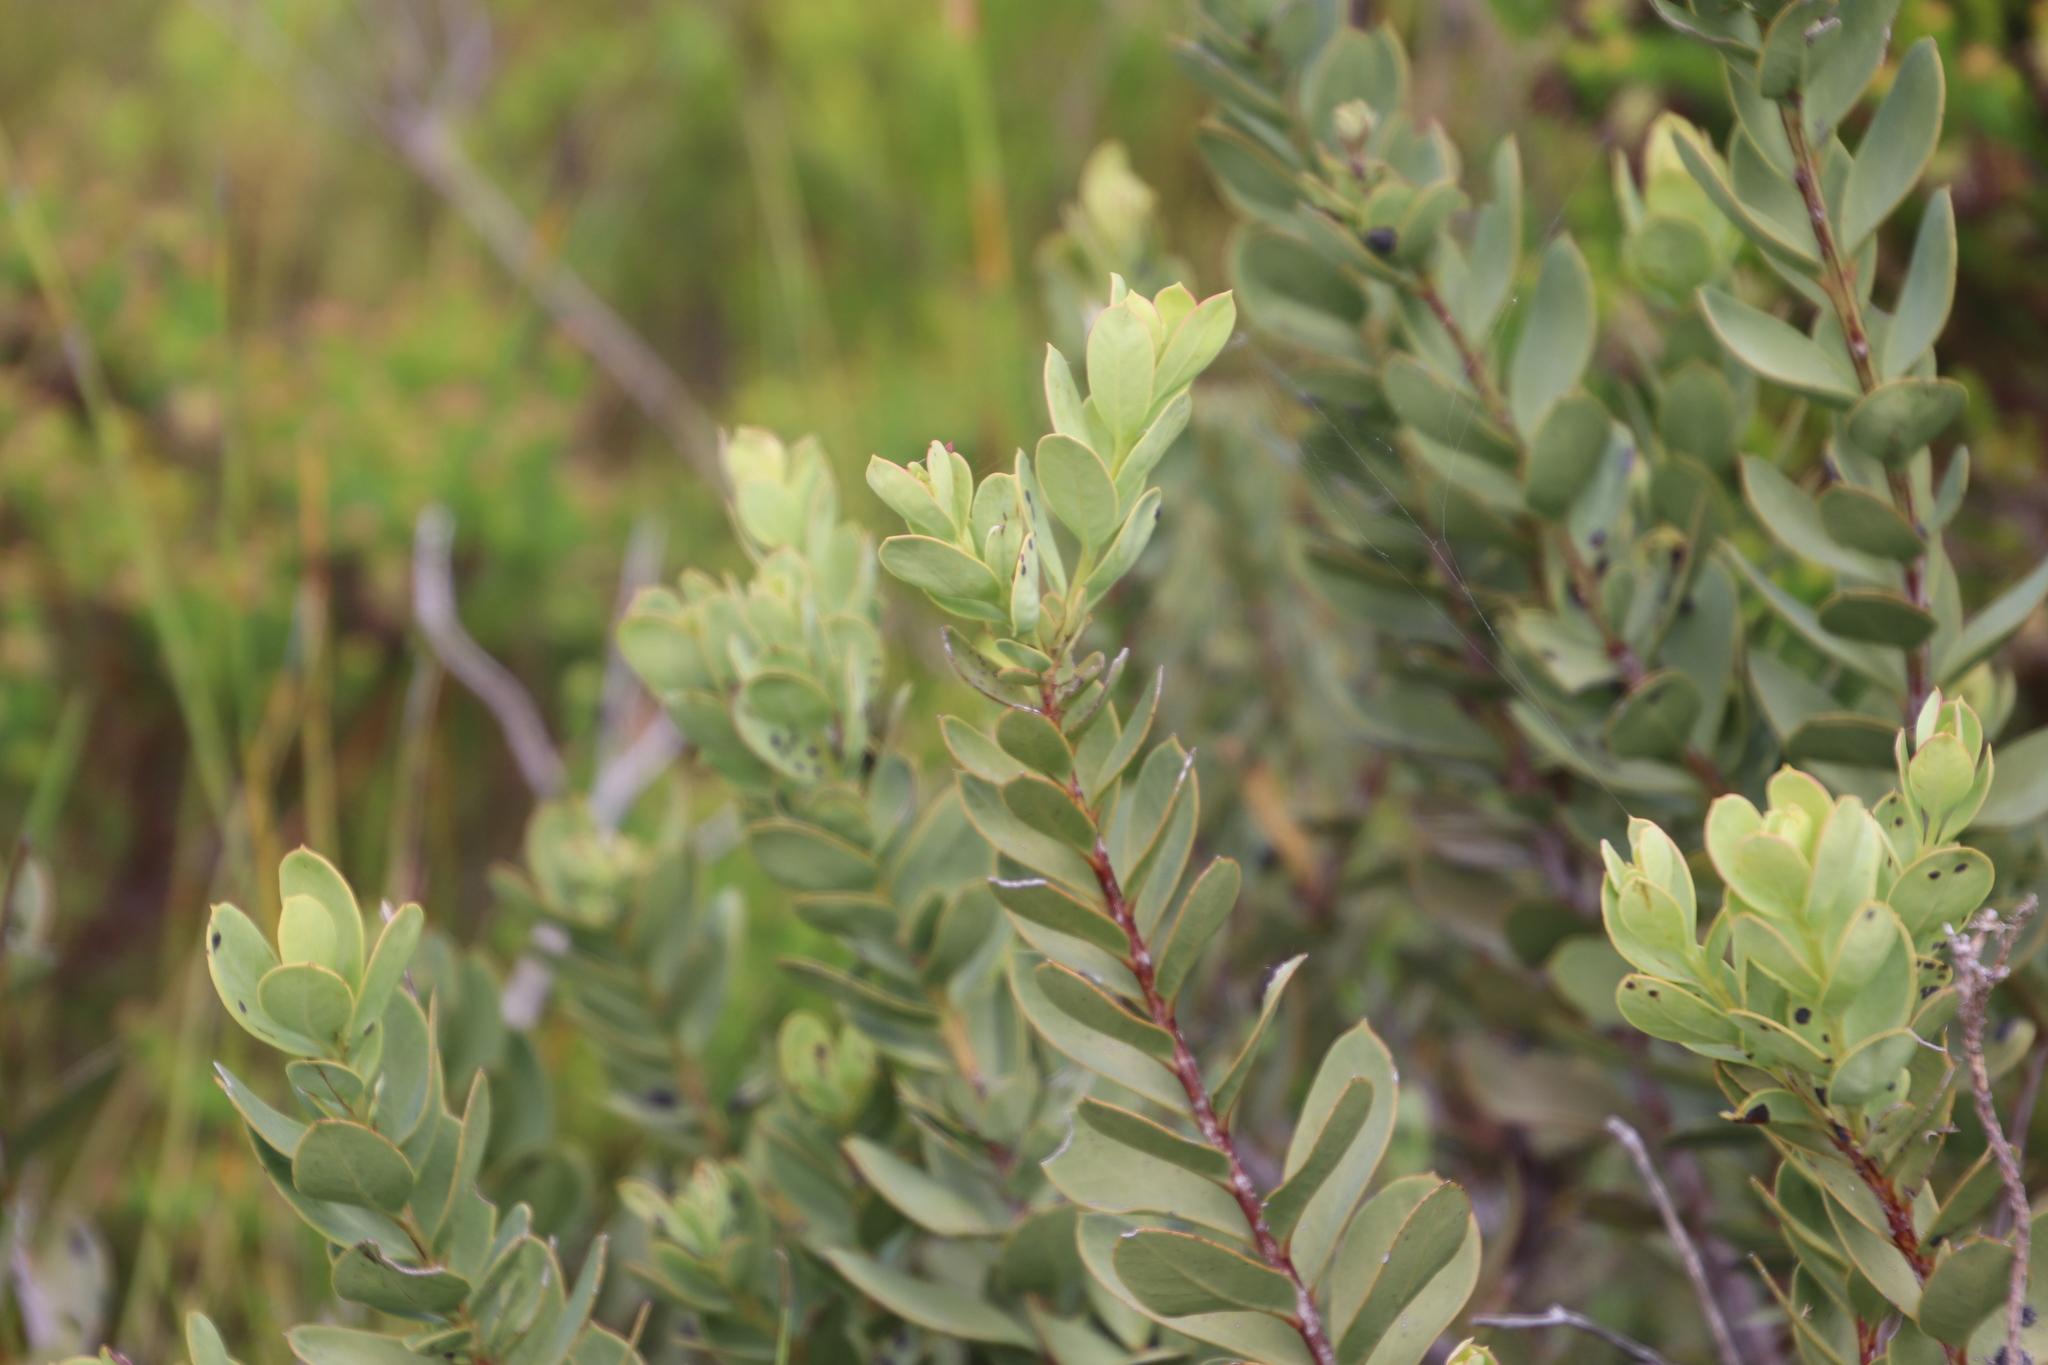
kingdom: Plantae
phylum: Tracheophyta
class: Magnoliopsida
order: Santalales
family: Santalaceae
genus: Osyris
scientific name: Osyris speciosa
